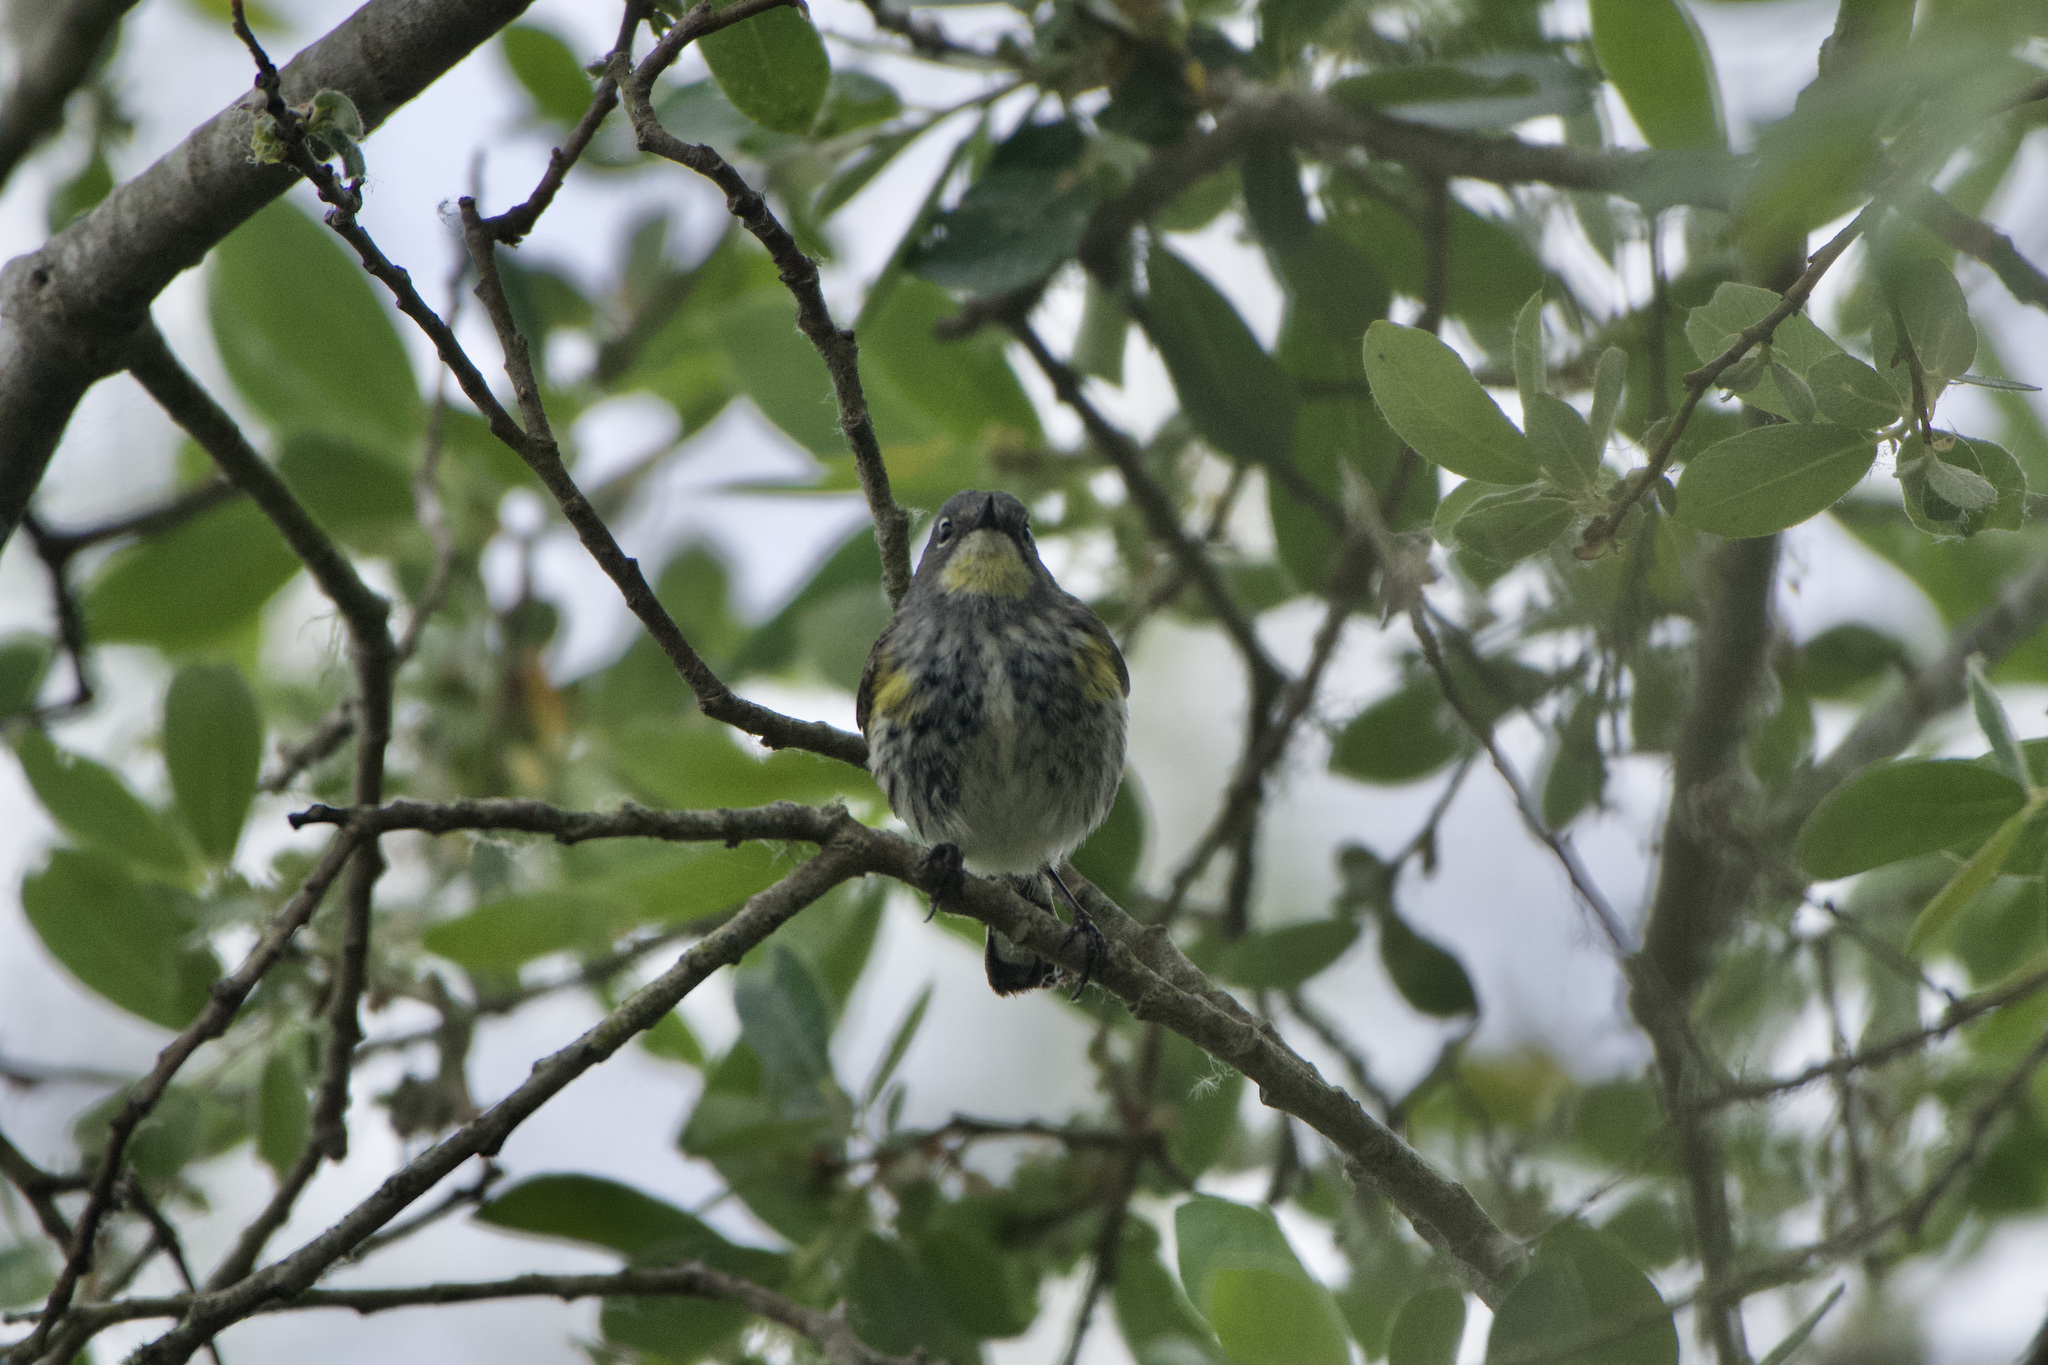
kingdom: Animalia
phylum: Chordata
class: Aves
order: Passeriformes
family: Parulidae
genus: Setophaga
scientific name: Setophaga coronata
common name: Myrtle warbler
